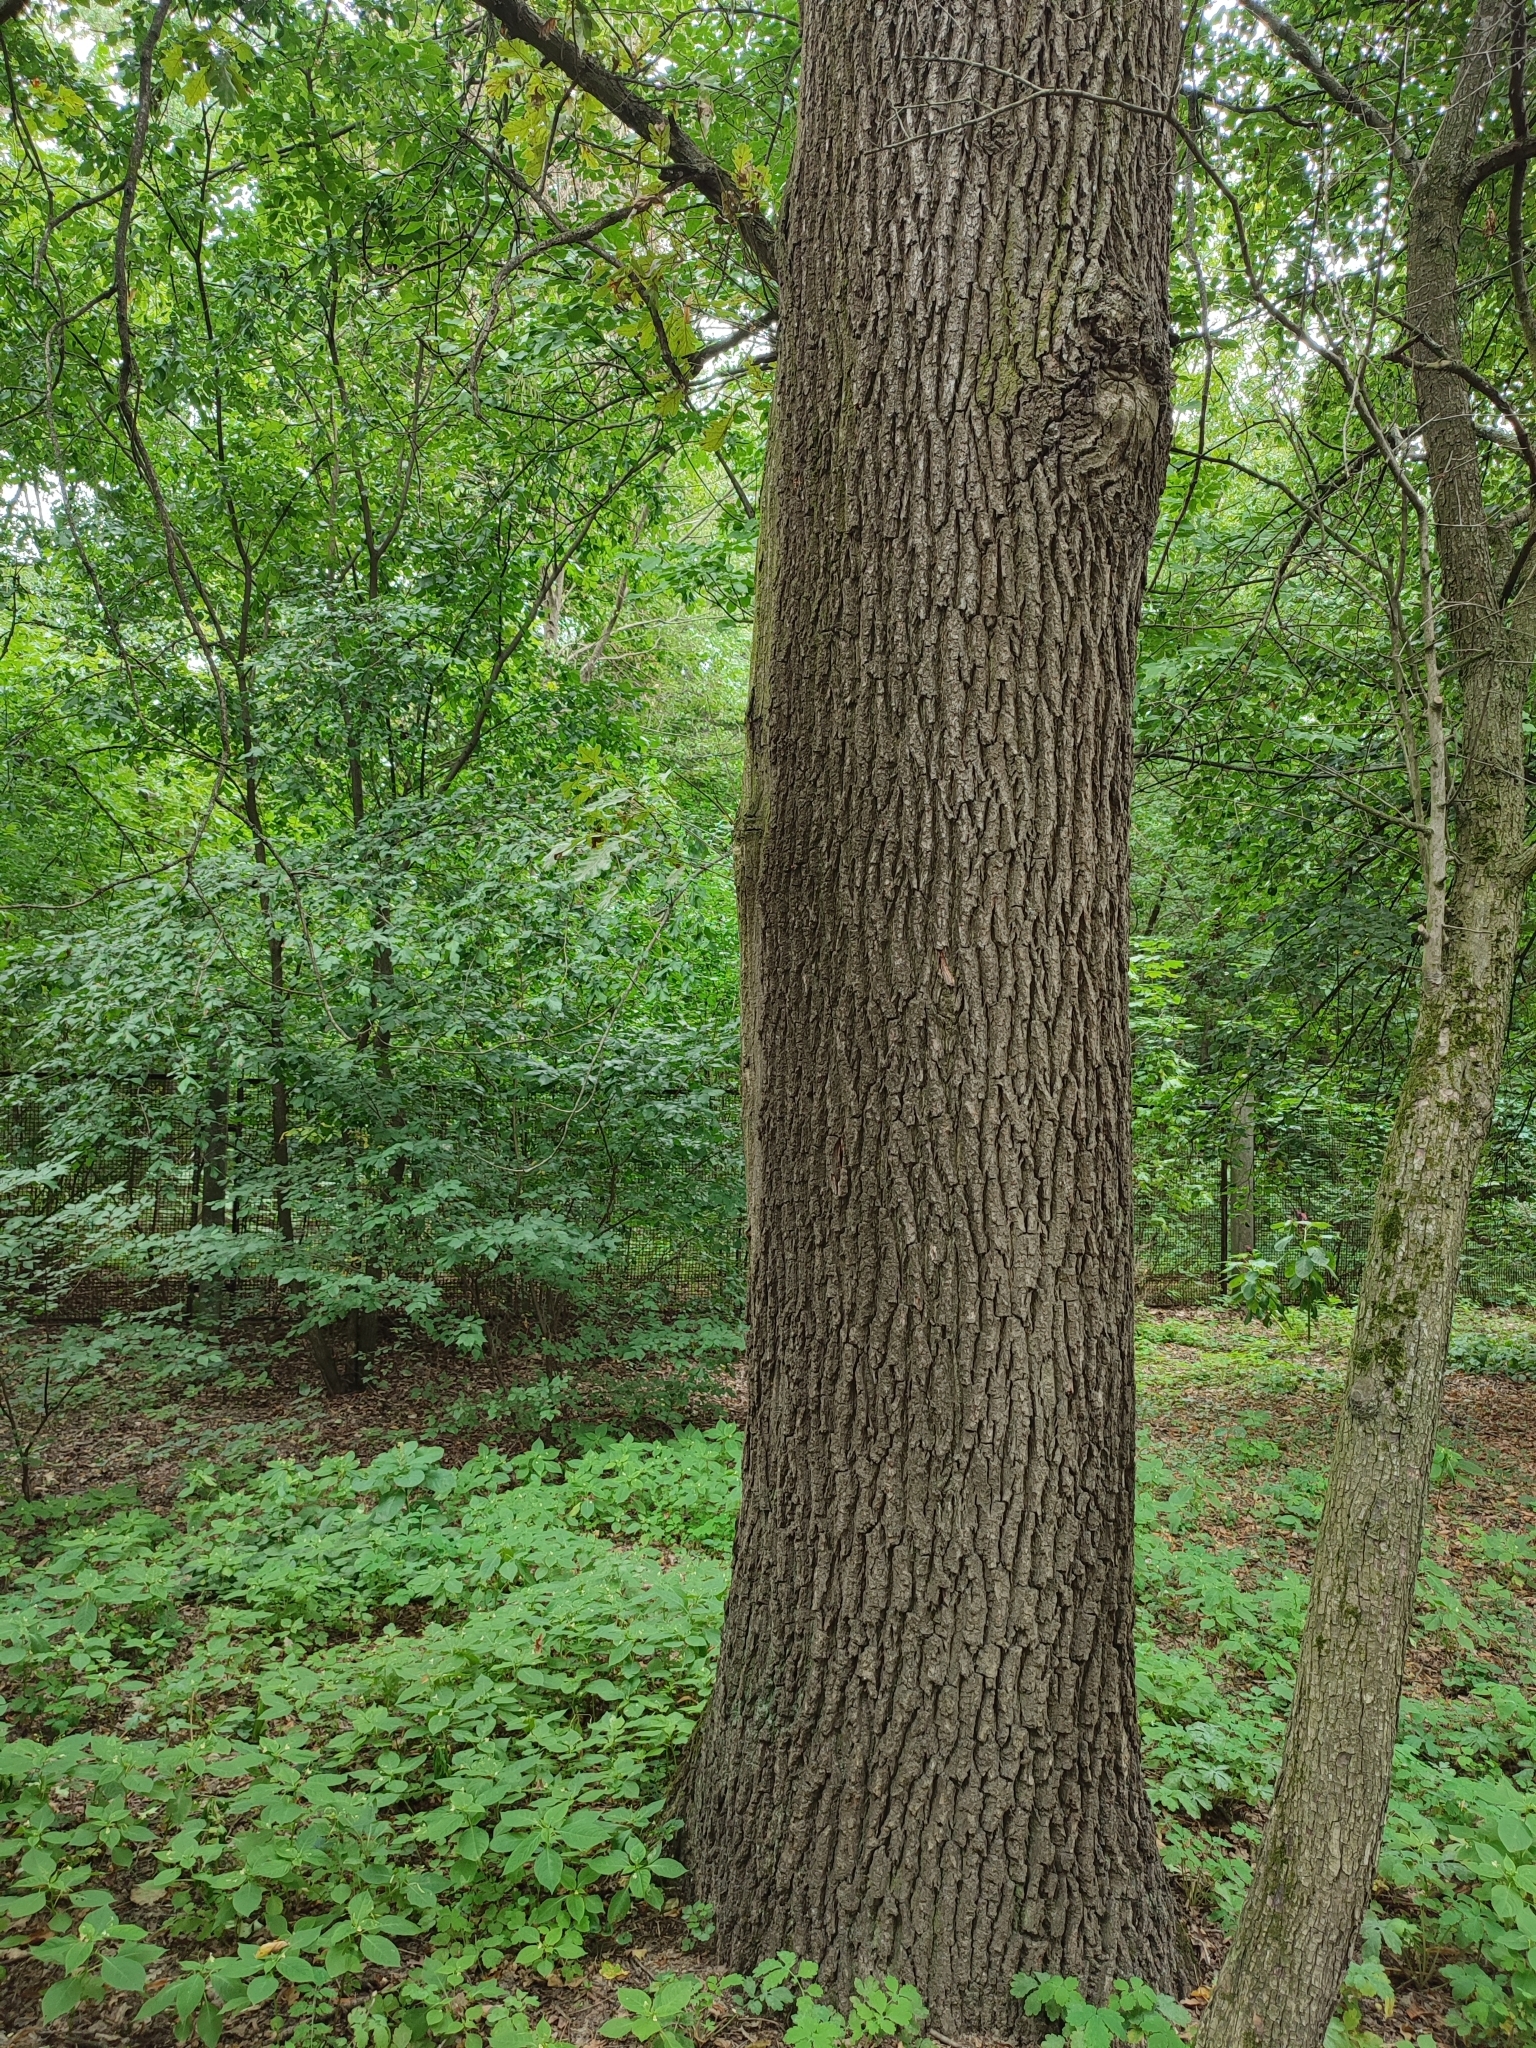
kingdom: Plantae
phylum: Tracheophyta
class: Magnoliopsida
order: Fagales
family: Fagaceae
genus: Quercus
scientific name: Quercus robur
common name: Pedunculate oak
